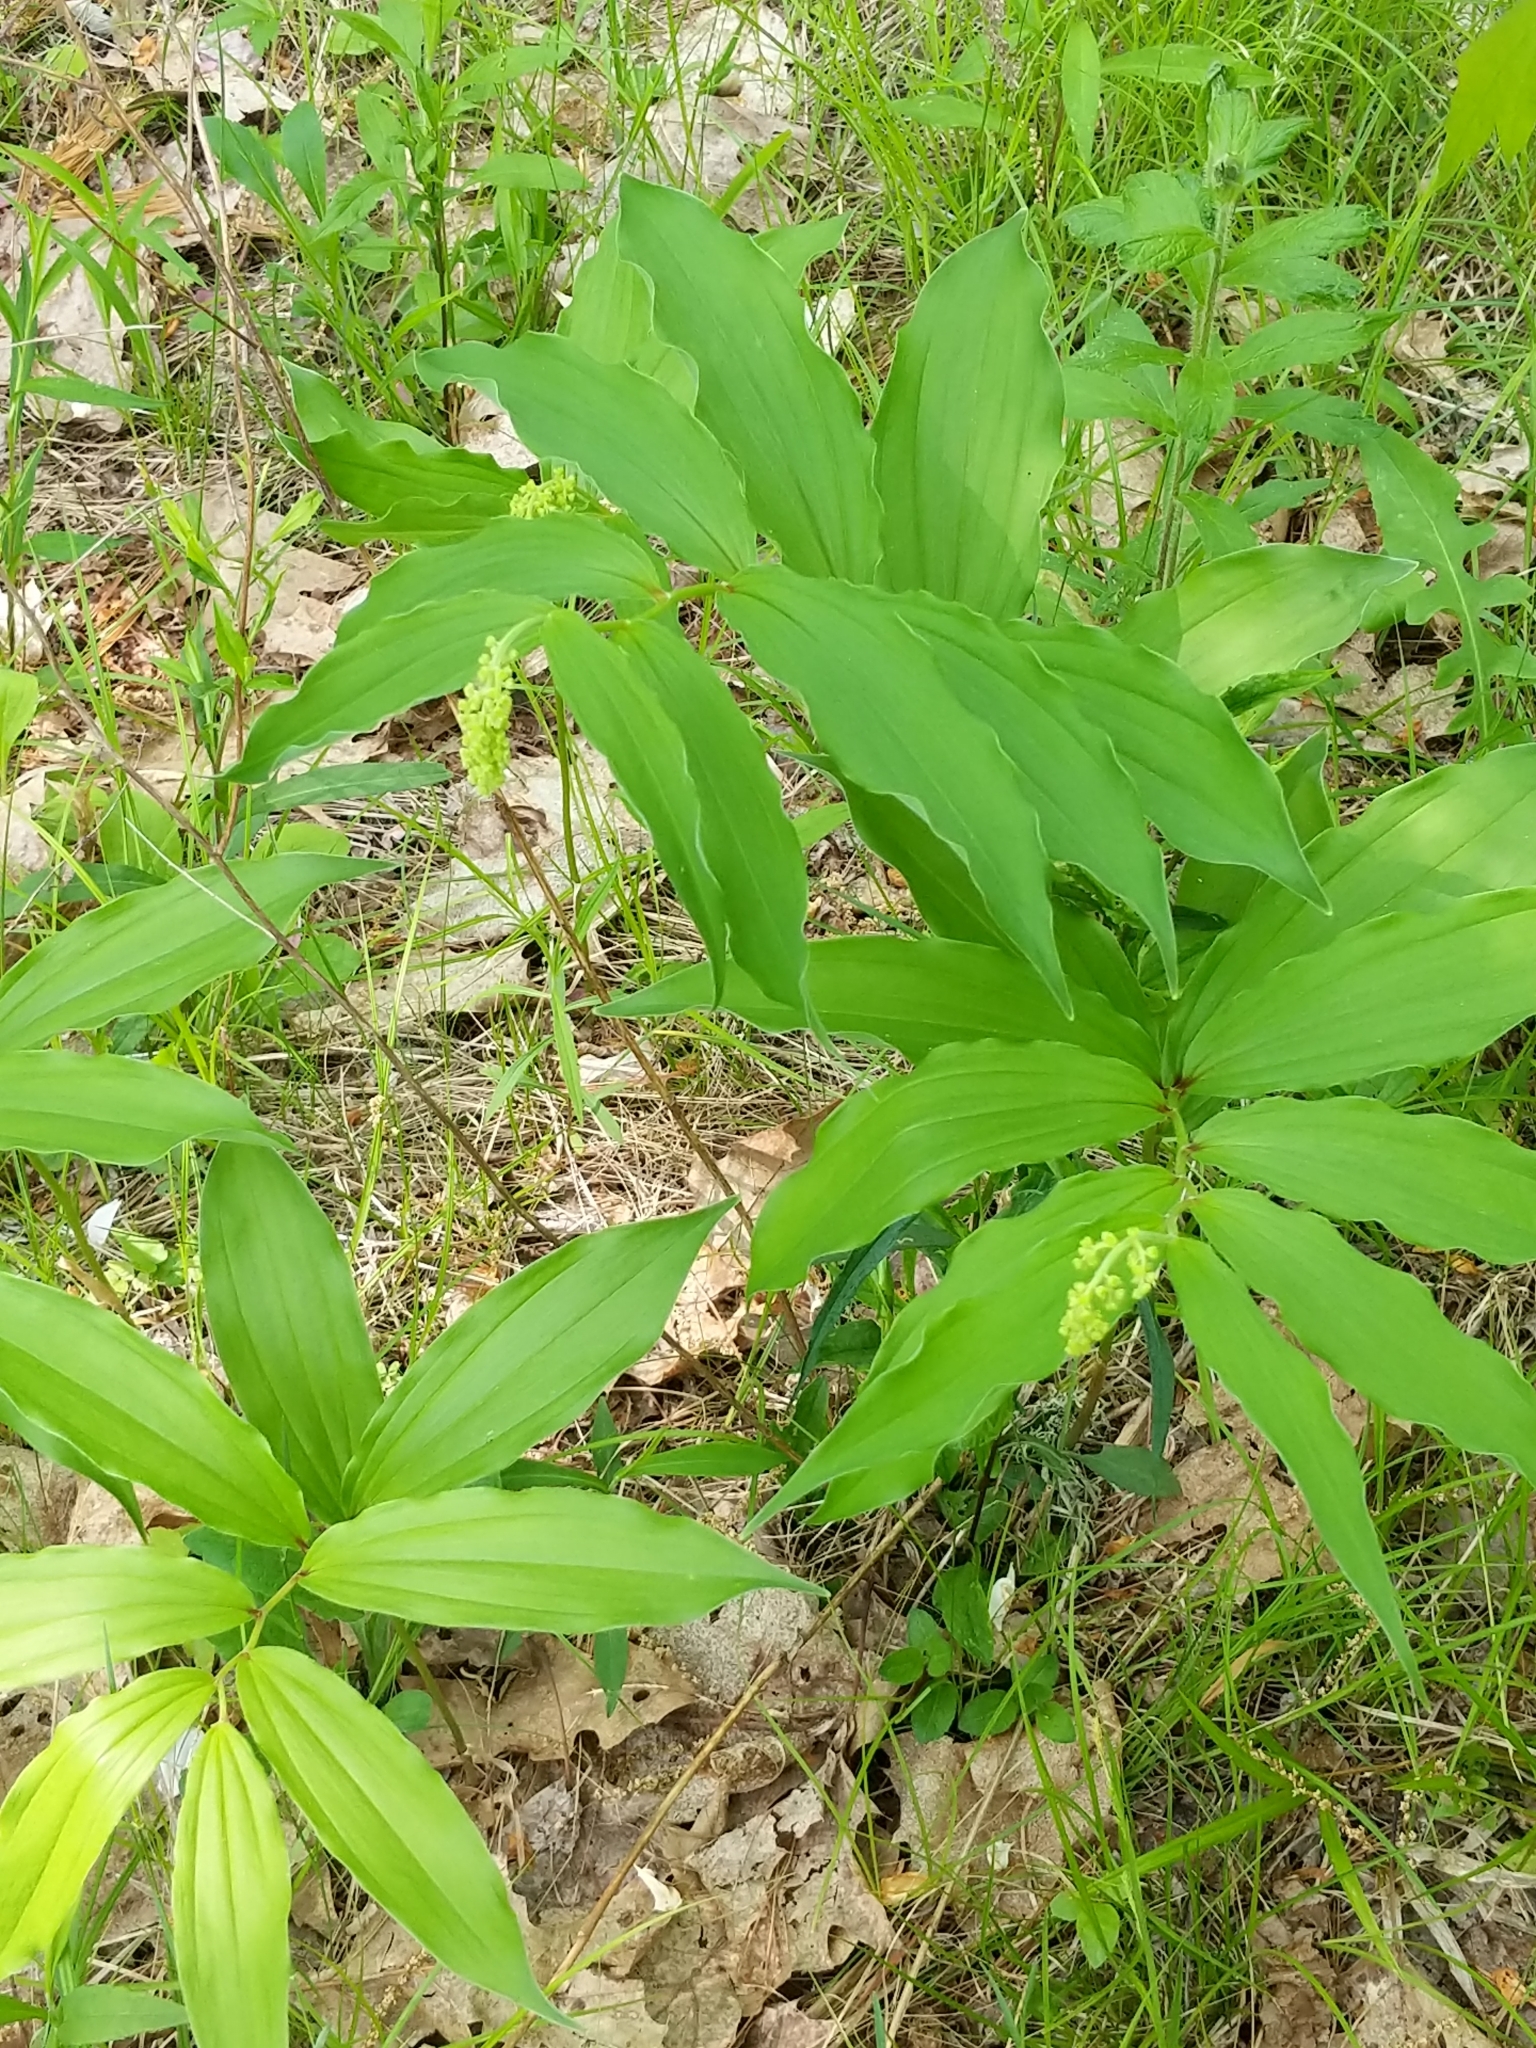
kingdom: Plantae
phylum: Tracheophyta
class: Liliopsida
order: Asparagales
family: Asparagaceae
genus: Maianthemum
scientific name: Maianthemum racemosum
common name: False spikenard
